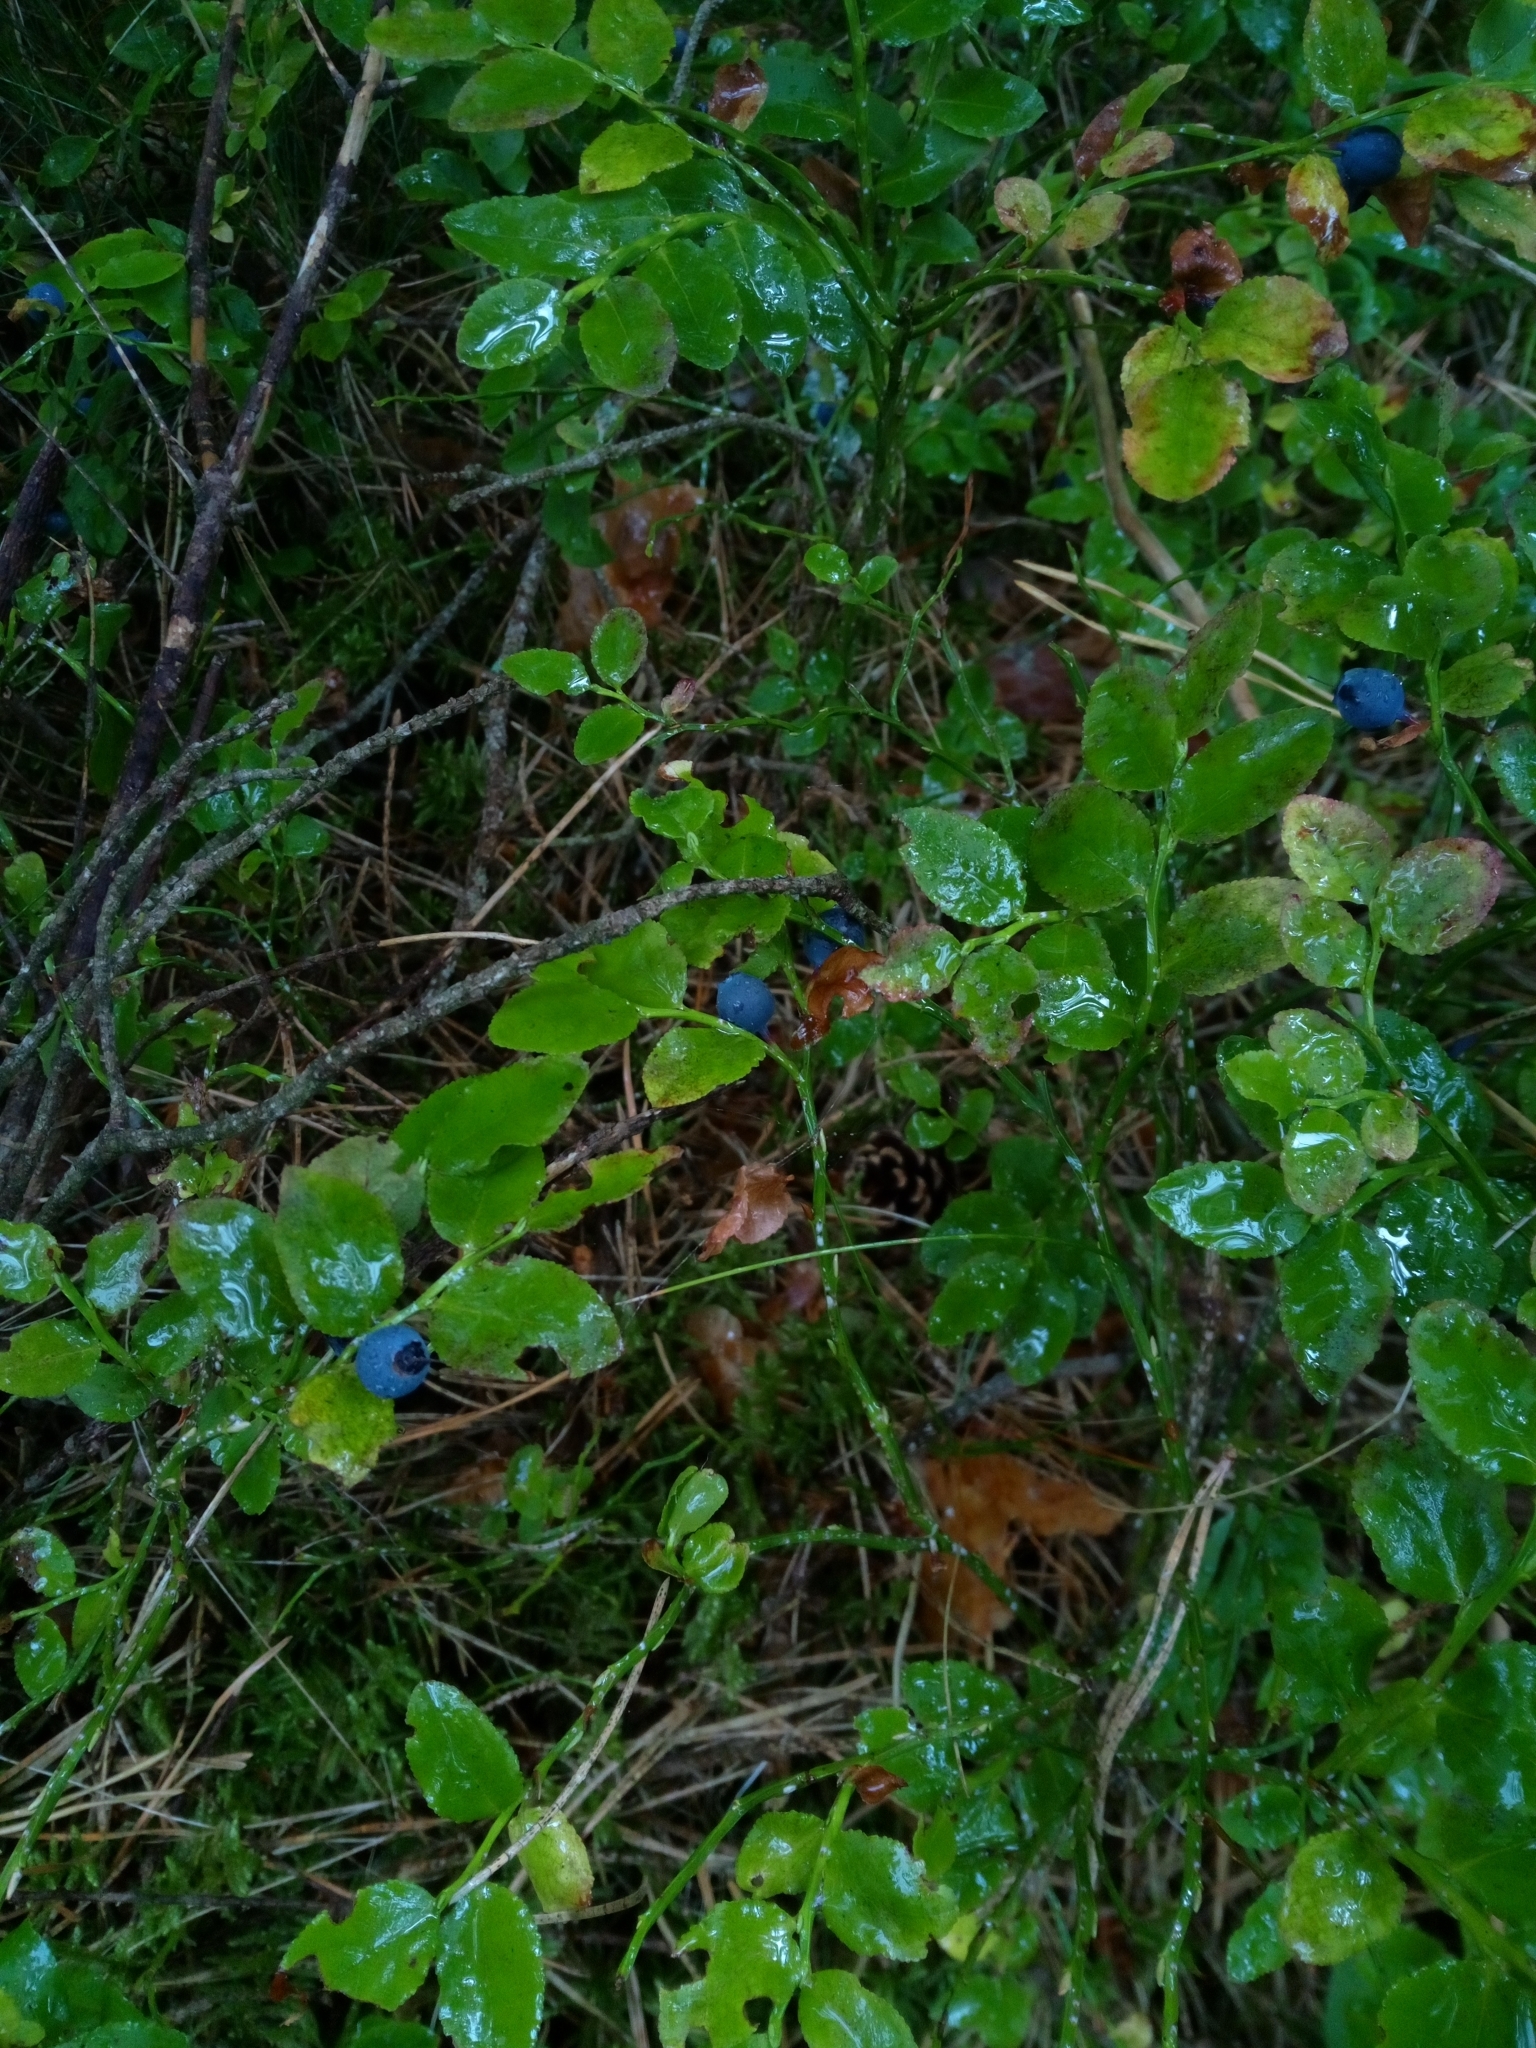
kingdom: Plantae
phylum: Tracheophyta
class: Magnoliopsida
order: Ericales
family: Ericaceae
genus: Vaccinium
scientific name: Vaccinium myrtillus
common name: Bilberry
